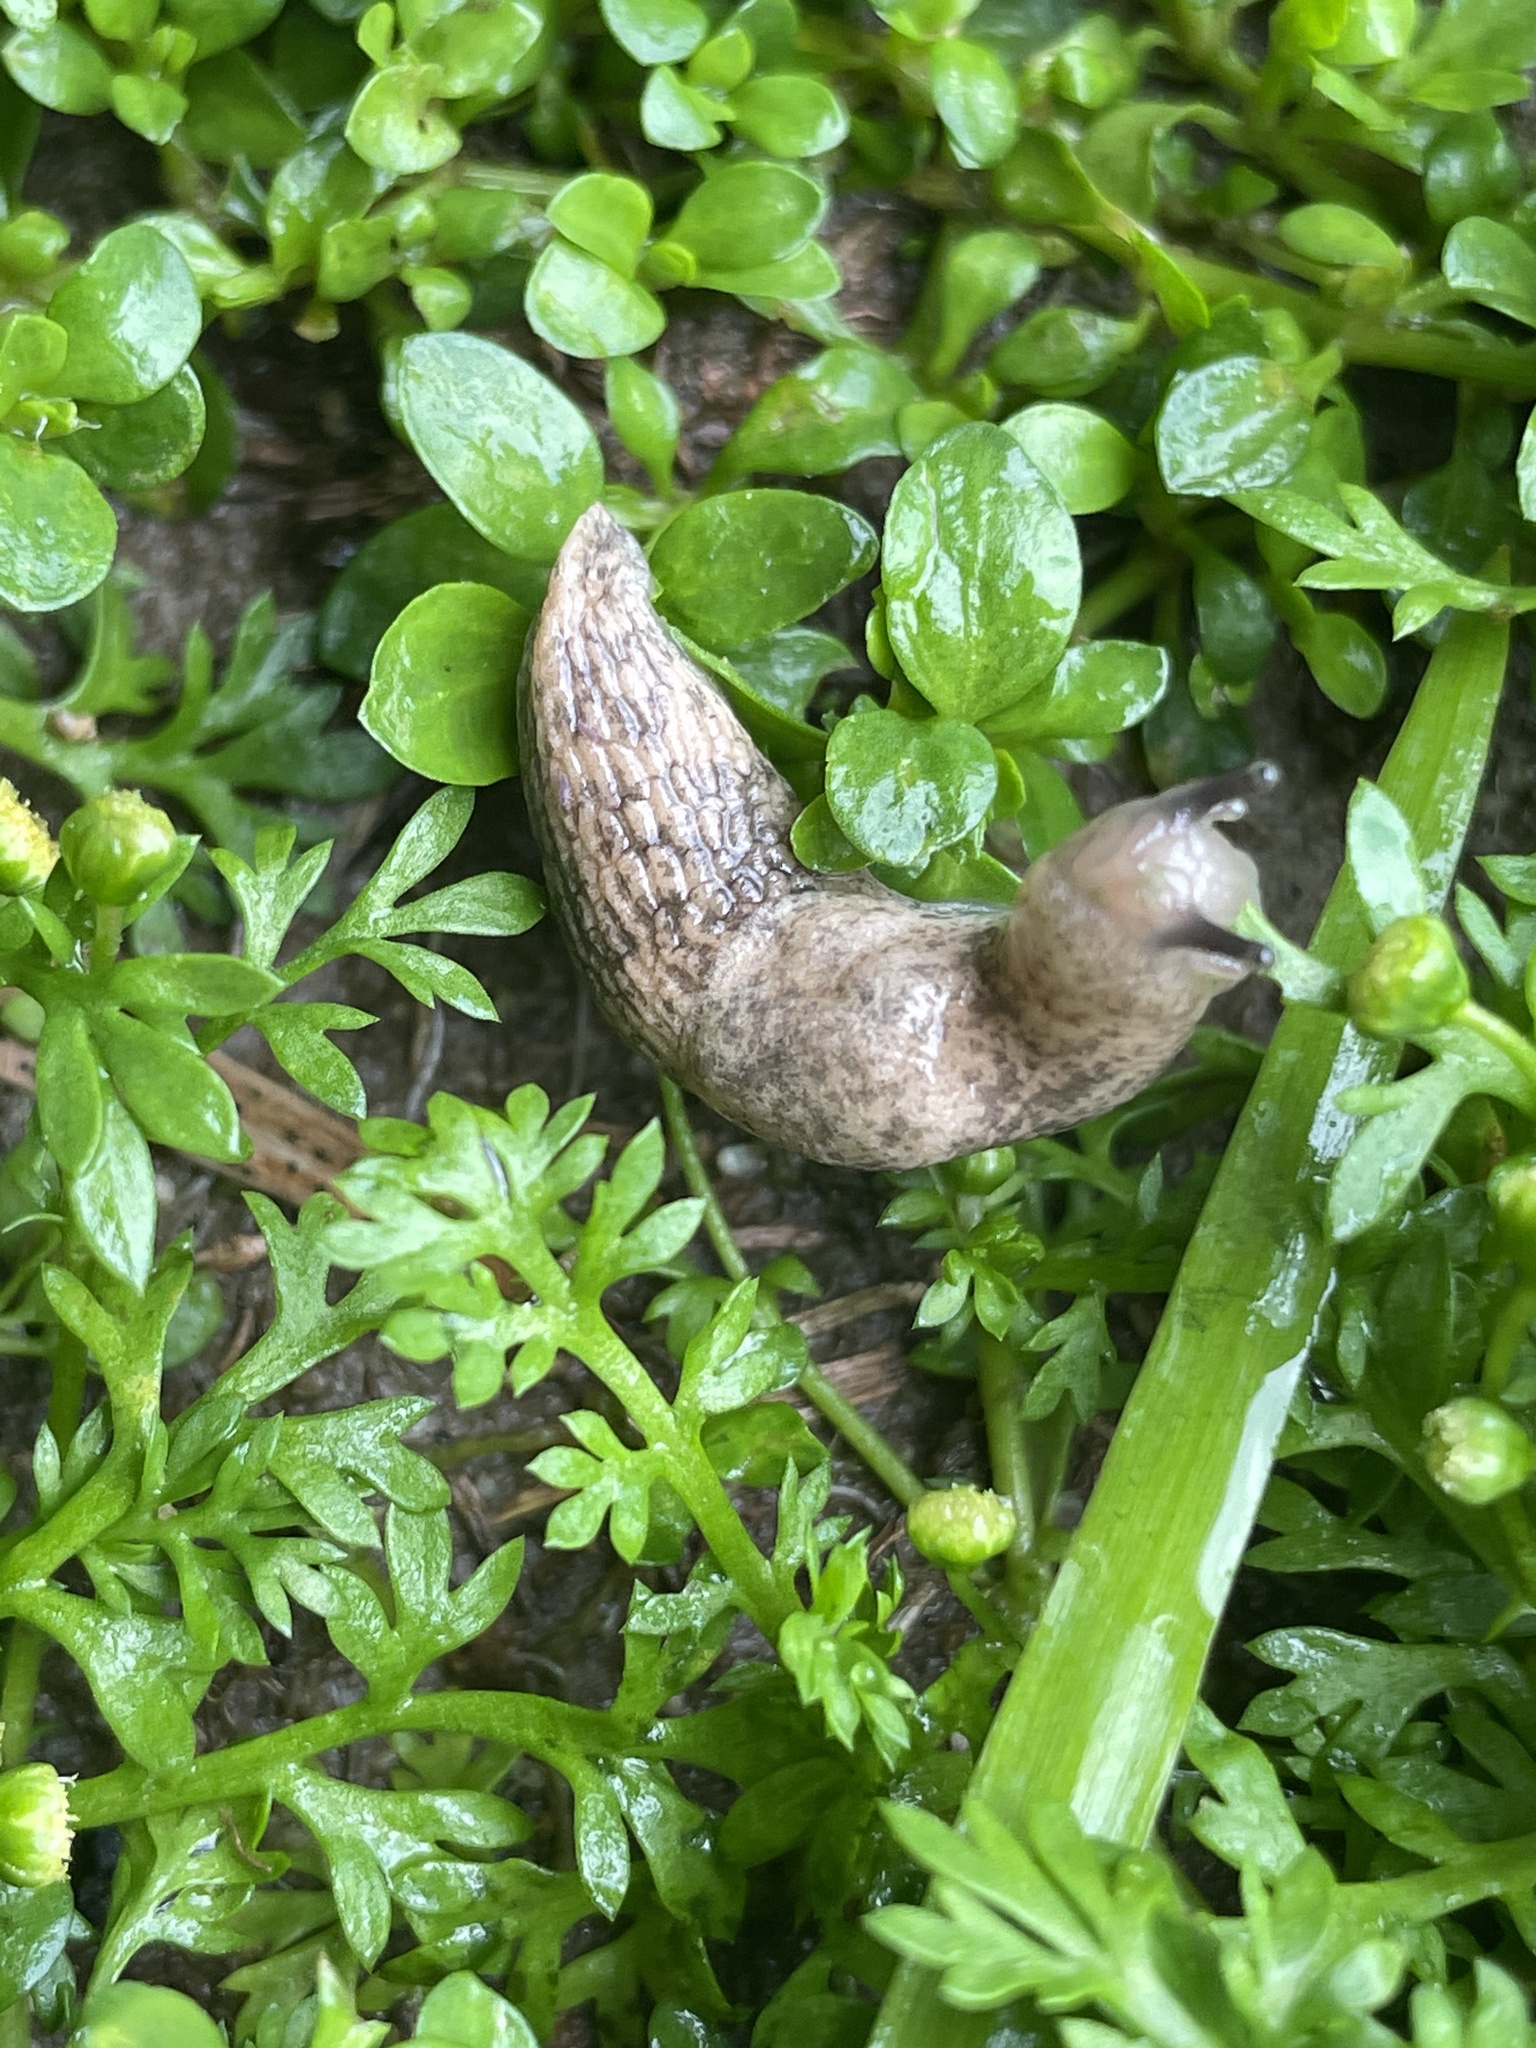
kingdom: Animalia
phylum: Mollusca
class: Gastropoda
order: Stylommatophora
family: Agriolimacidae
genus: Deroceras
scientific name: Deroceras reticulatum
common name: Gray field slug
